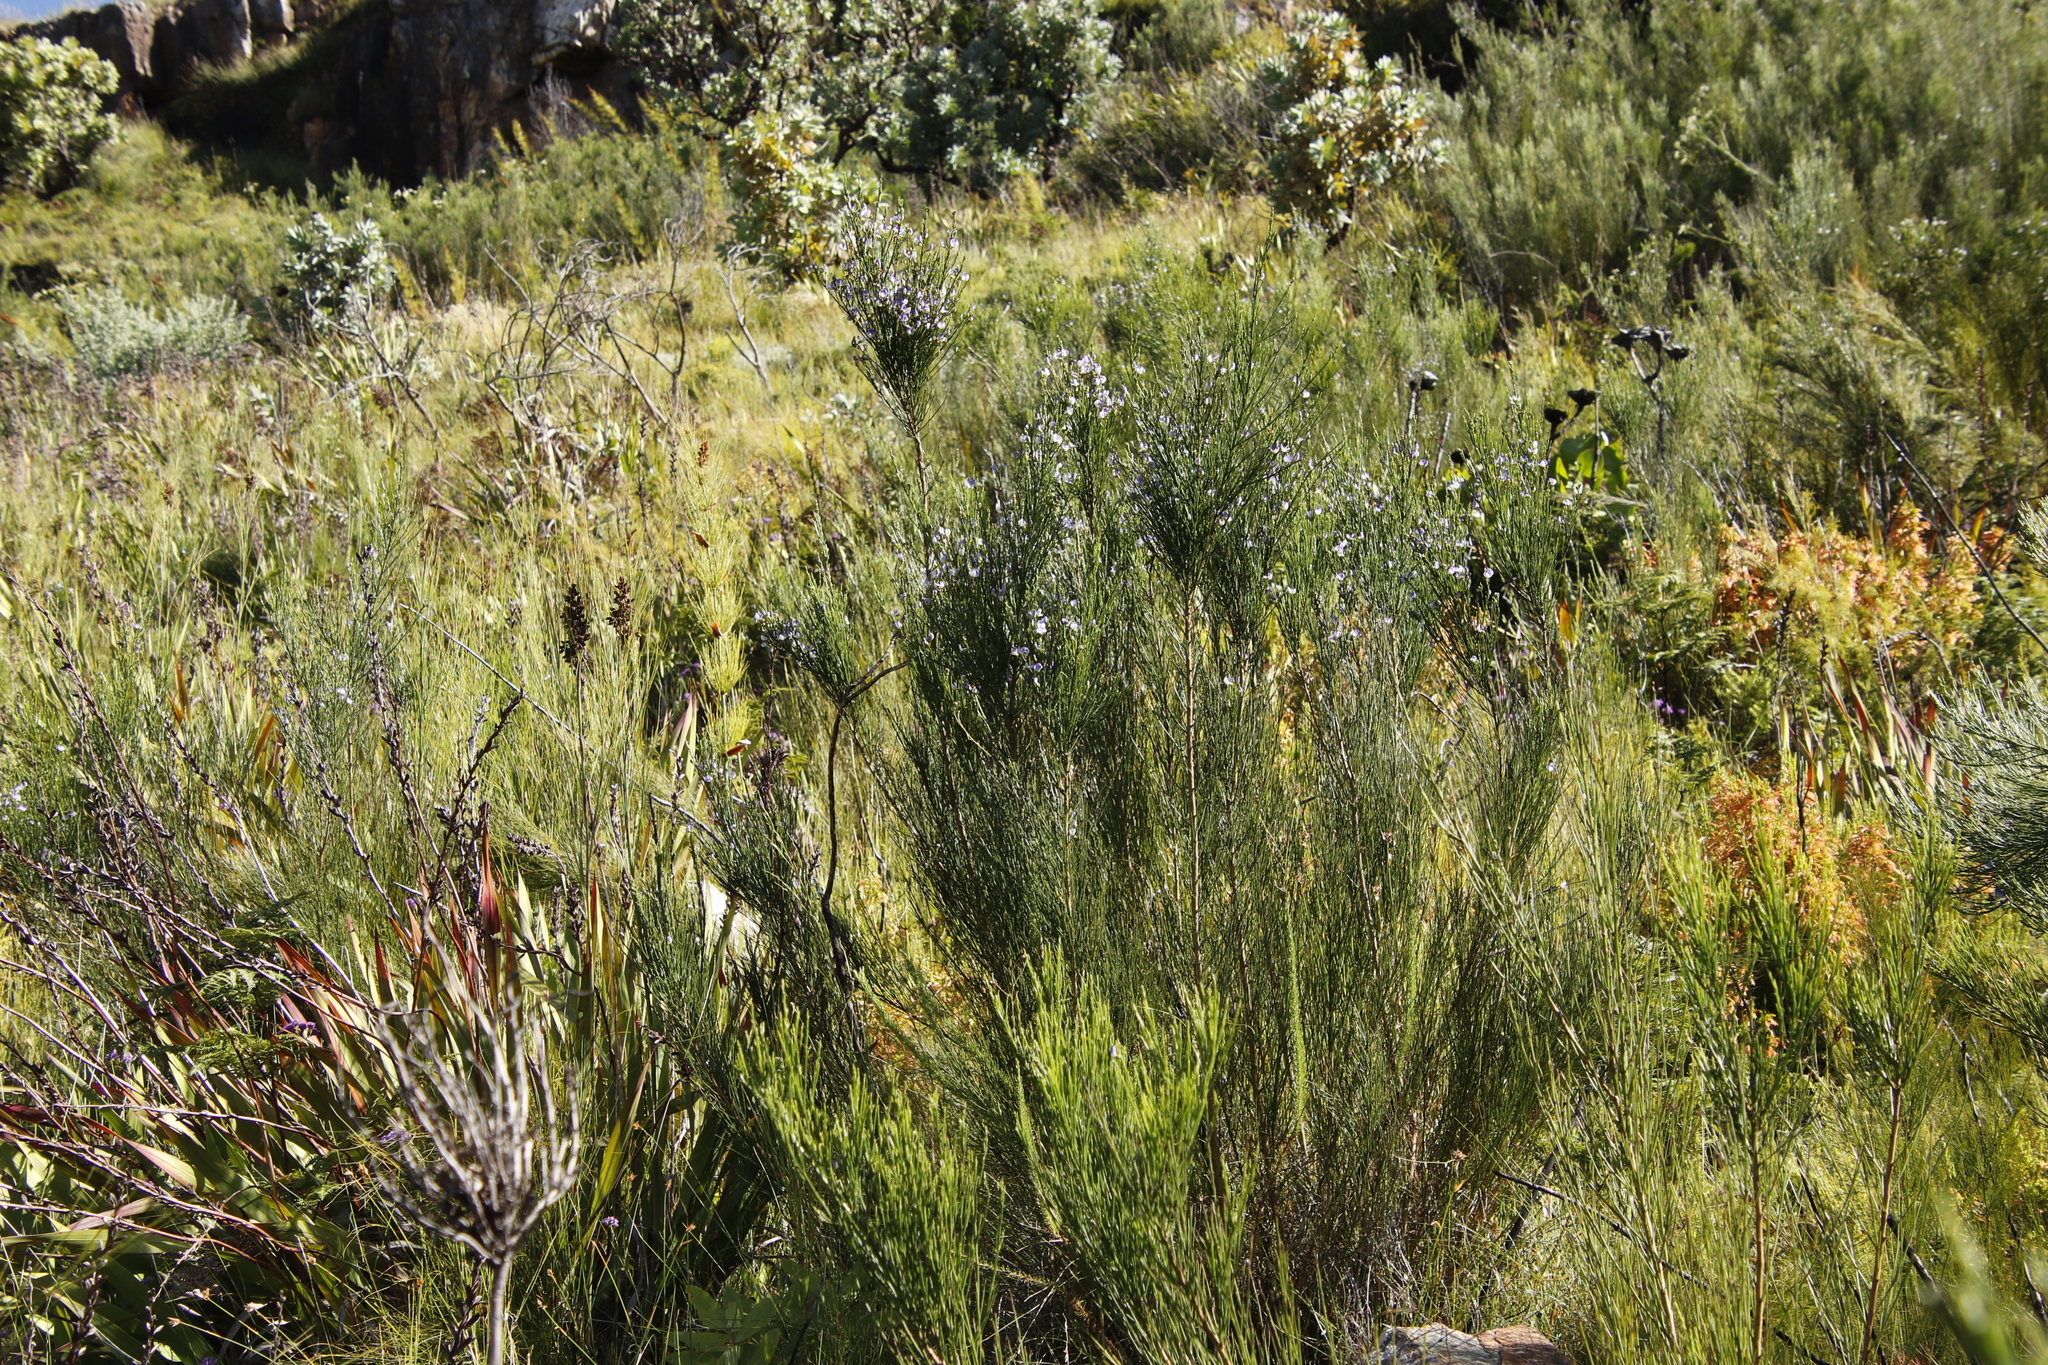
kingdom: Plantae
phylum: Tracheophyta
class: Magnoliopsida
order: Fabales
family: Fabaceae
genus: Psoralea
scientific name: Psoralea usitata
